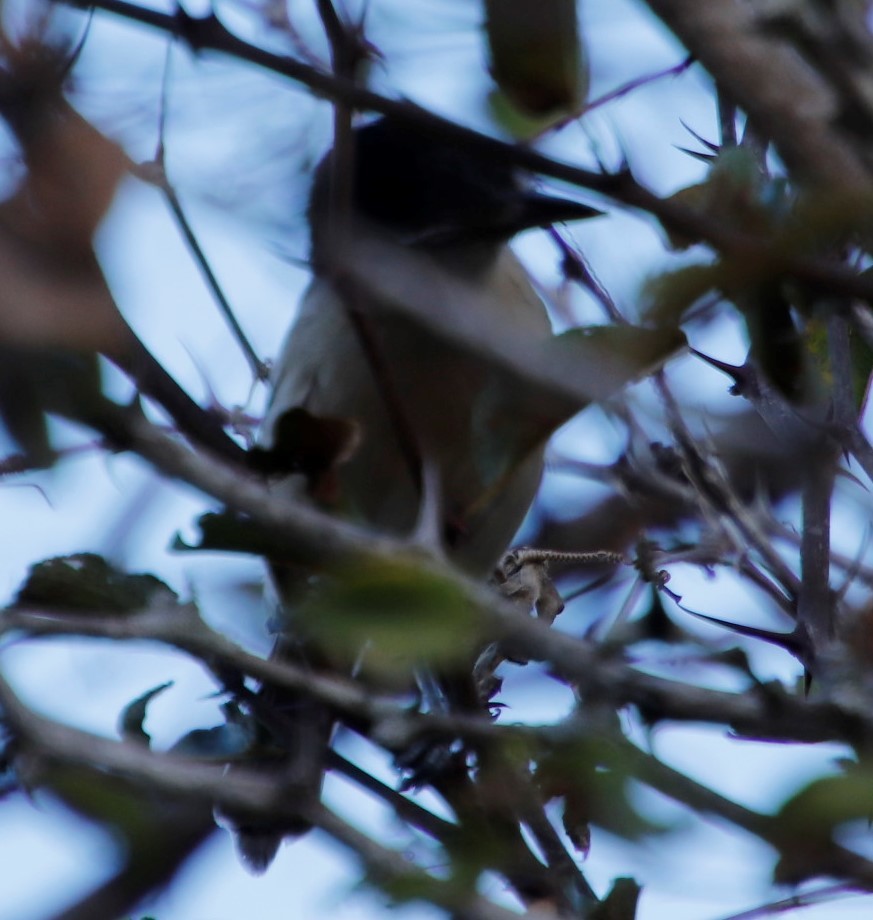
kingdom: Animalia
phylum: Chordata
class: Aves
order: Passeriformes
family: Malaconotidae
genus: Dryoscopus
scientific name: Dryoscopus cubla
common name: Black-backed puffback
